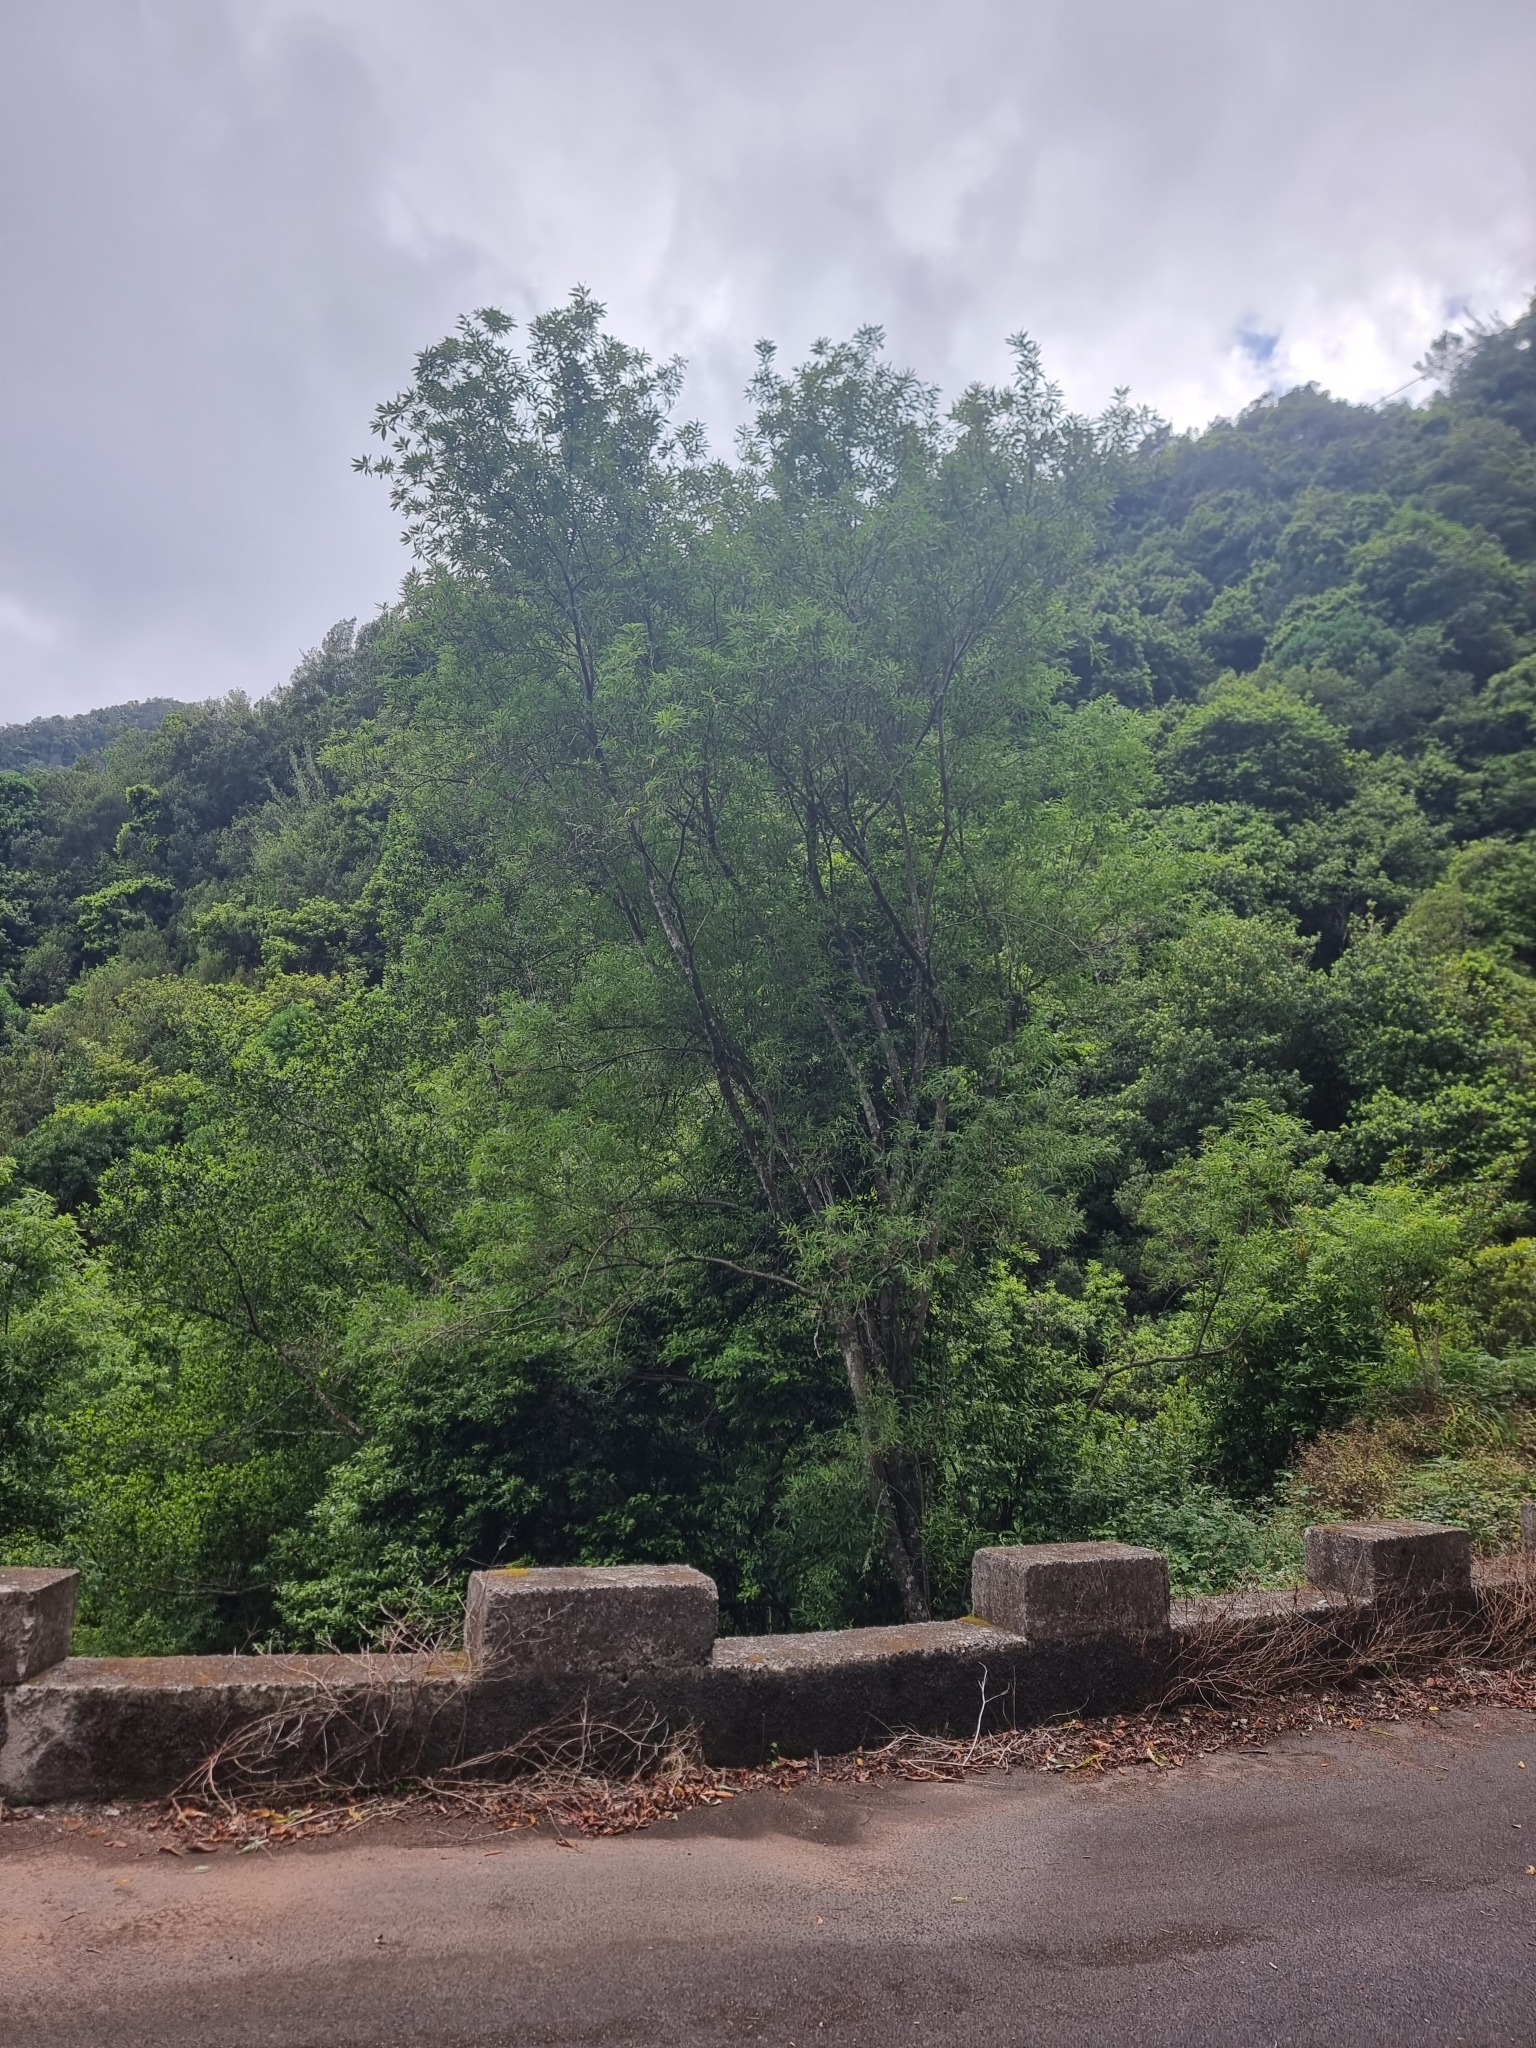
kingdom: Plantae
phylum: Tracheophyta
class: Magnoliopsida
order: Malpighiales
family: Salicaceae
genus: Salix
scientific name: Salix canariensis
